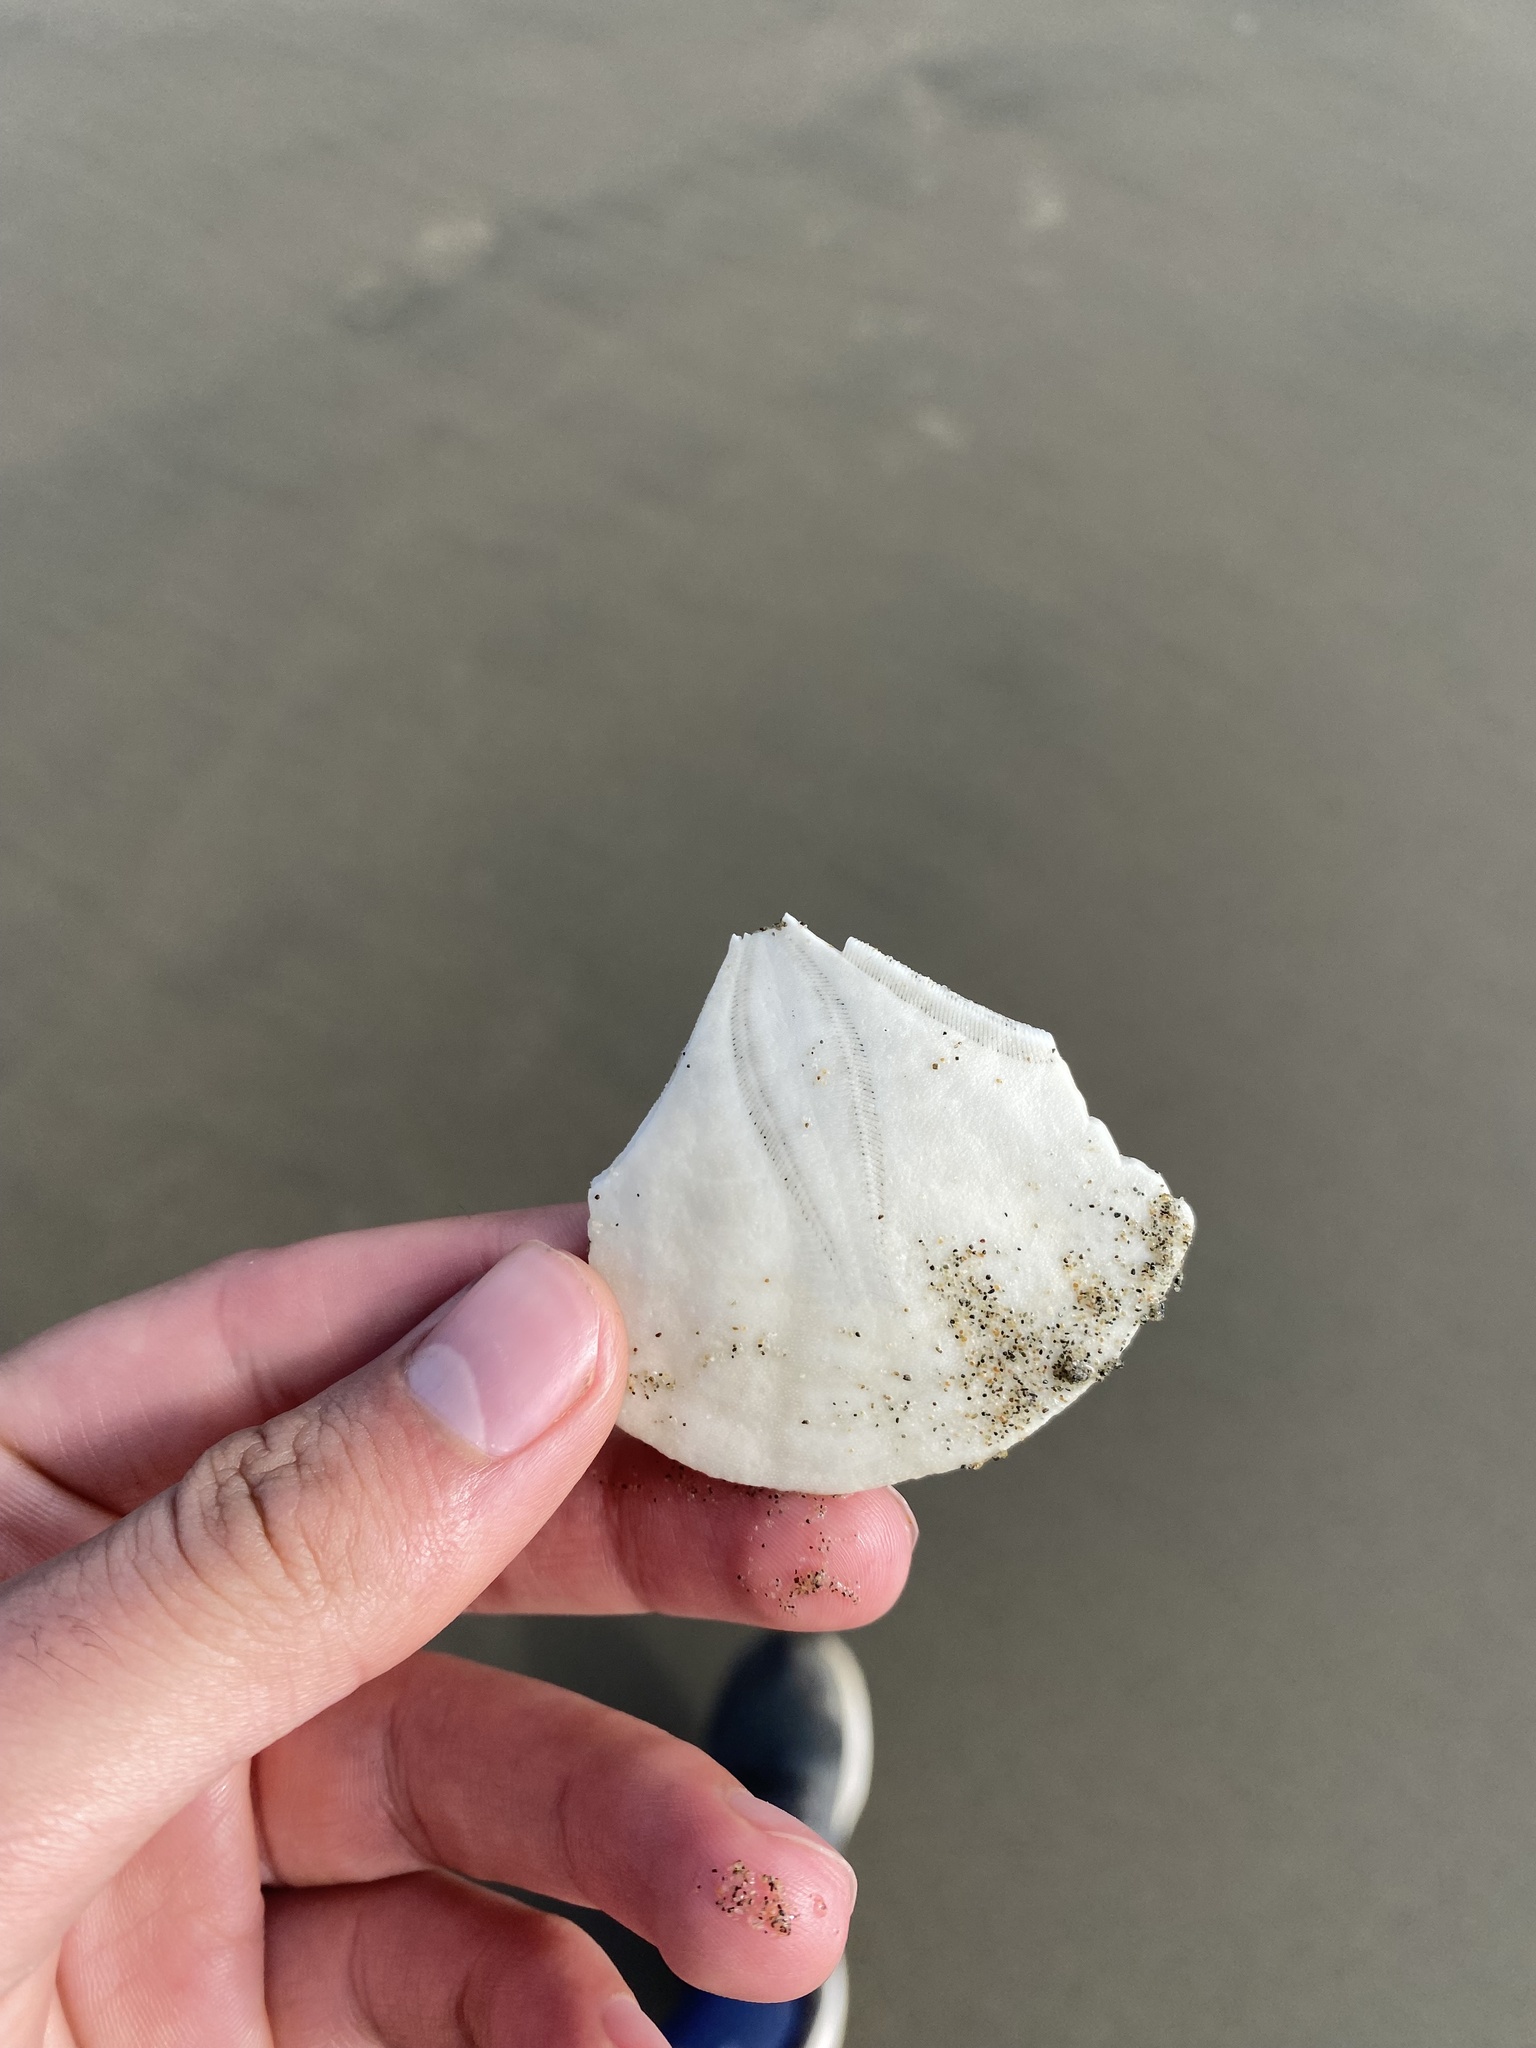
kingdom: Animalia
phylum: Echinodermata
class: Echinoidea
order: Echinolampadacea
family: Dendrasteridae
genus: Dendraster
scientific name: Dendraster excentricus
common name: Eccentric sand dollar sea urchin
